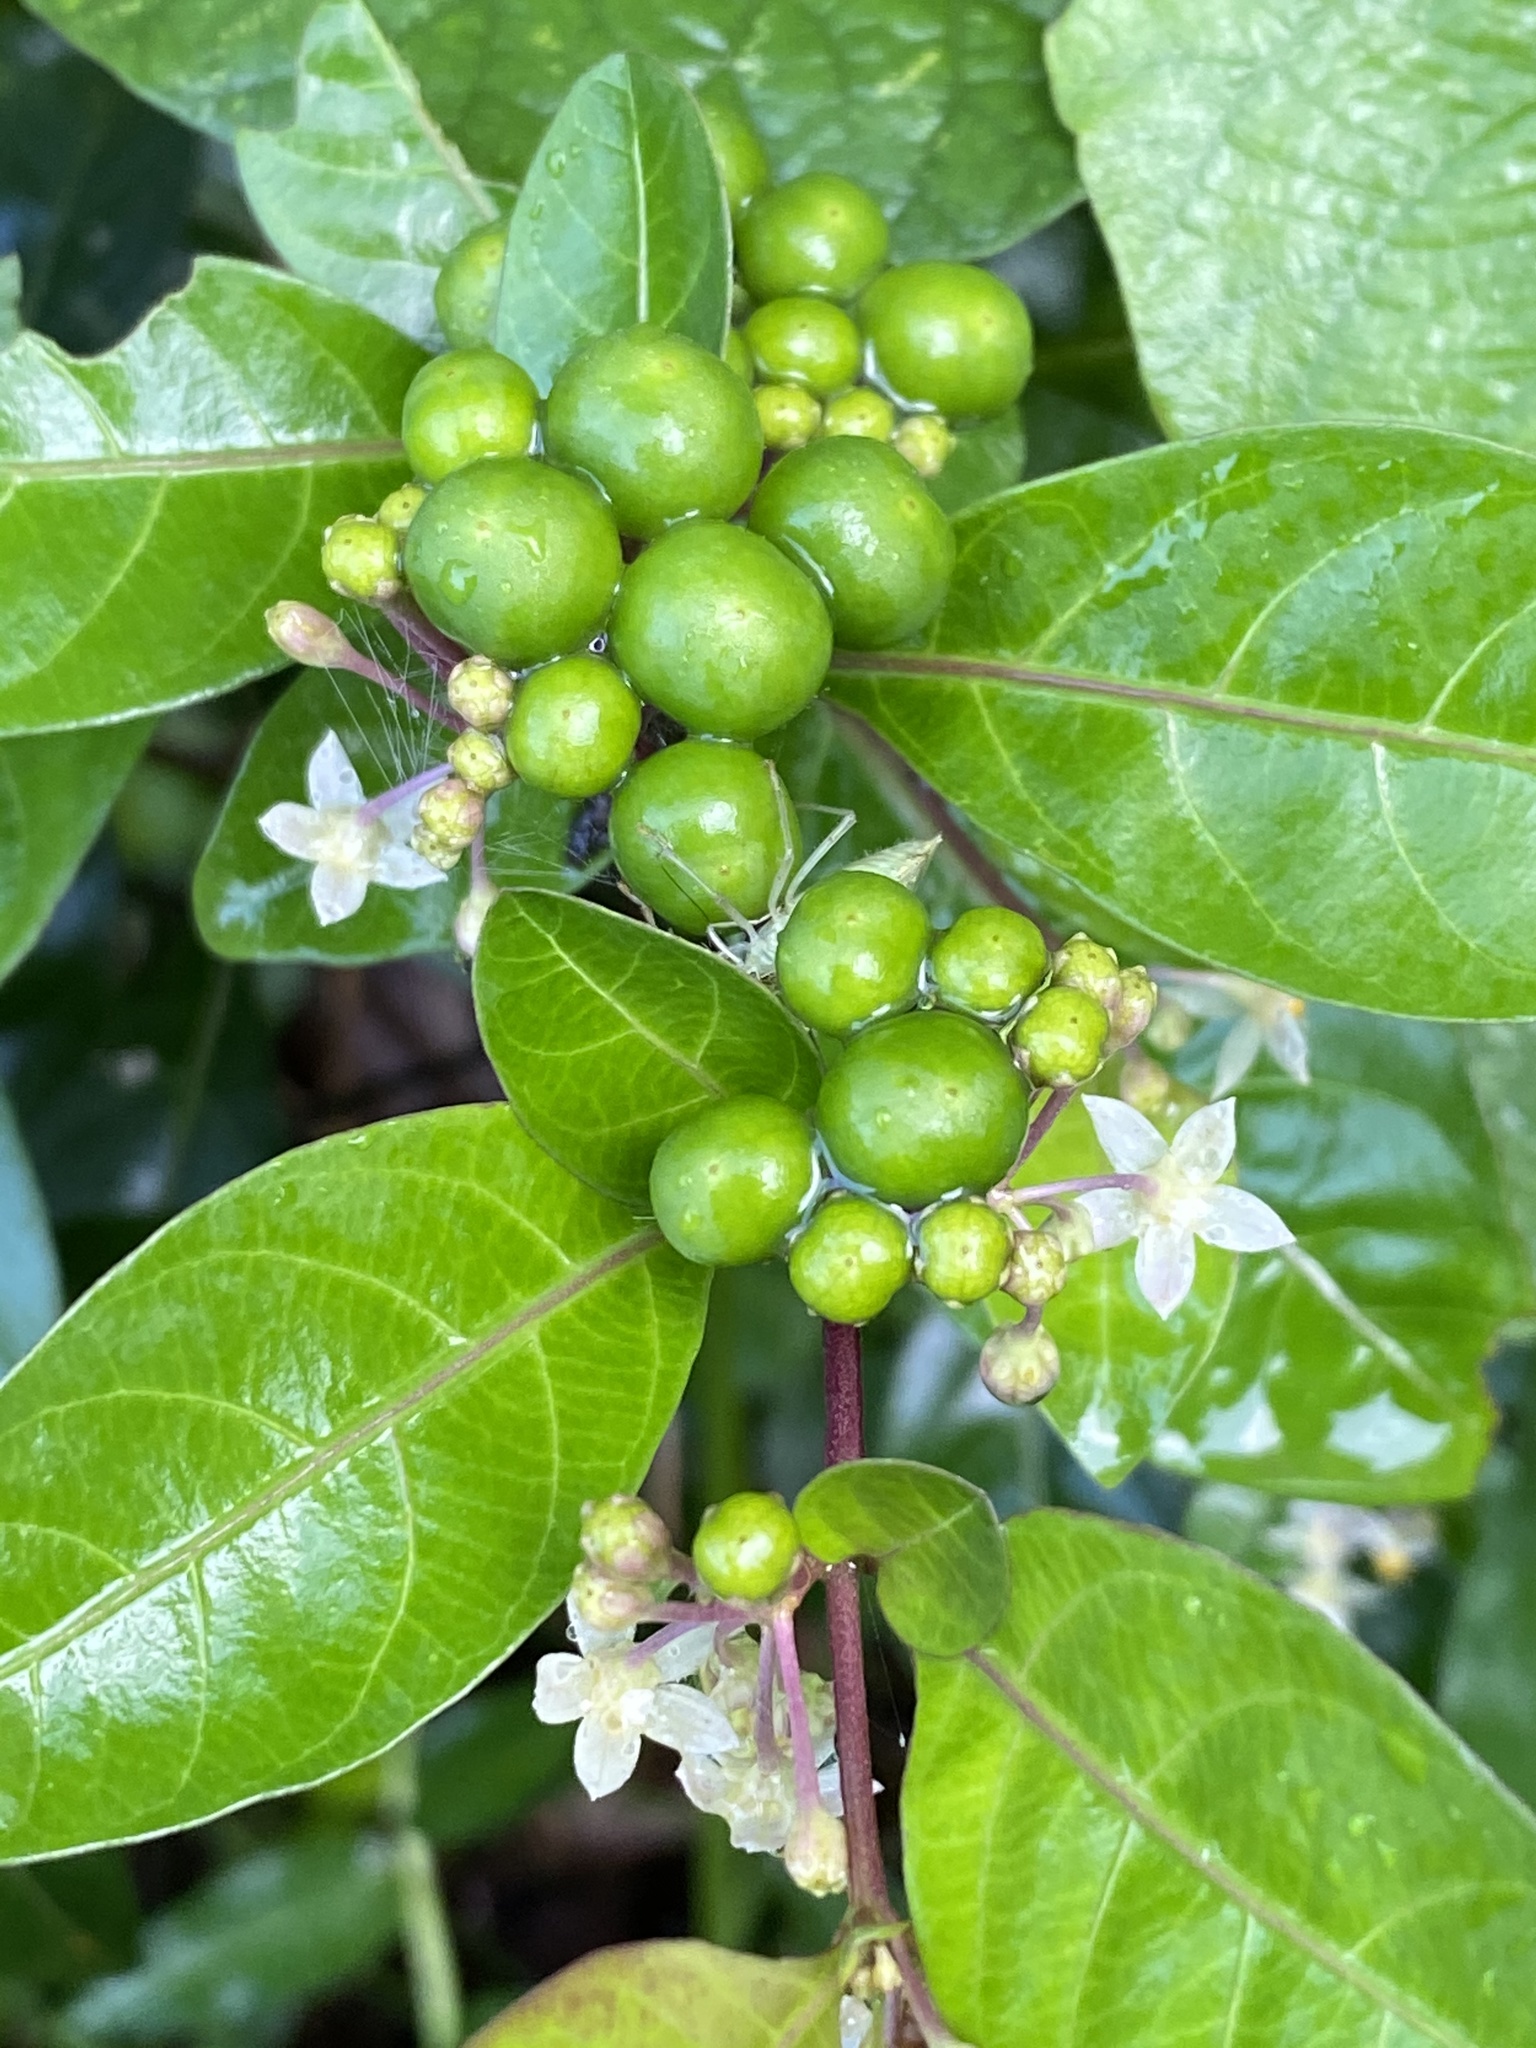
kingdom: Plantae
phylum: Tracheophyta
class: Magnoliopsida
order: Solanales
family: Solanaceae
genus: Solanum
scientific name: Solanum diphyllum
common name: Twoleaf nightshade
